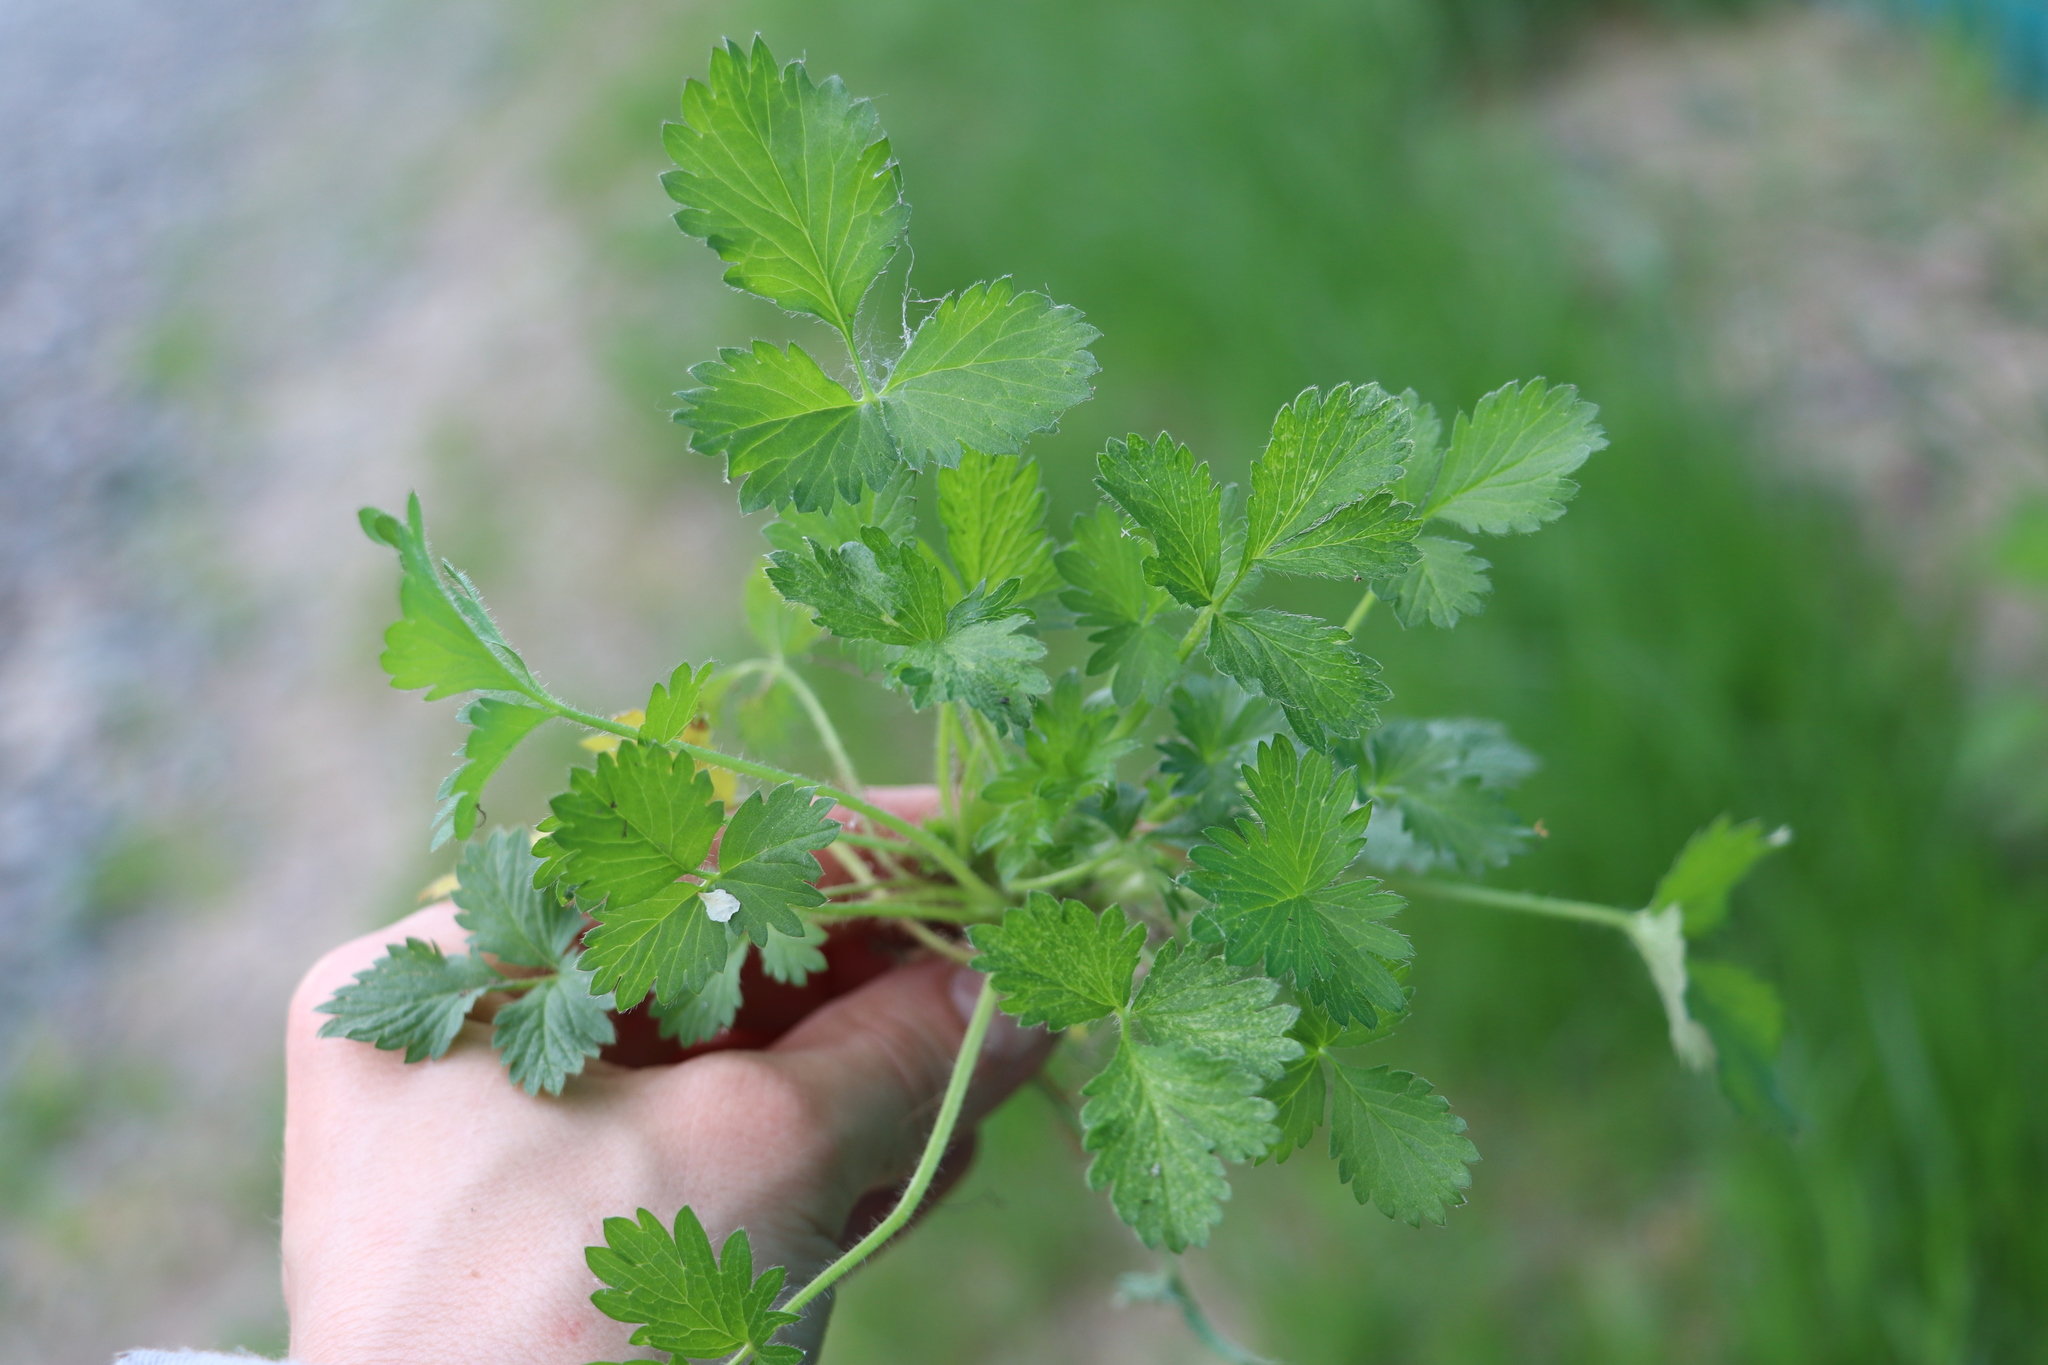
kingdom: Plantae
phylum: Tracheophyta
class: Magnoliopsida
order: Rosales
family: Rosaceae
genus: Potentilla
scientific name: Potentilla norvegica
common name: Ternate-leaved cinquefoil
